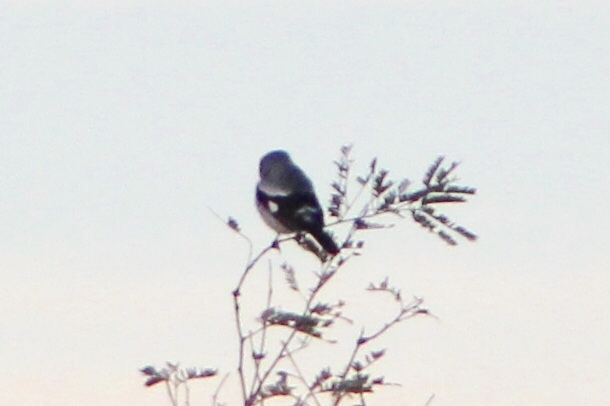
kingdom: Animalia
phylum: Chordata
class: Aves
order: Passeriformes
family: Laniidae
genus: Lanius
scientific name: Lanius ludovicianus
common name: Loggerhead shrike
